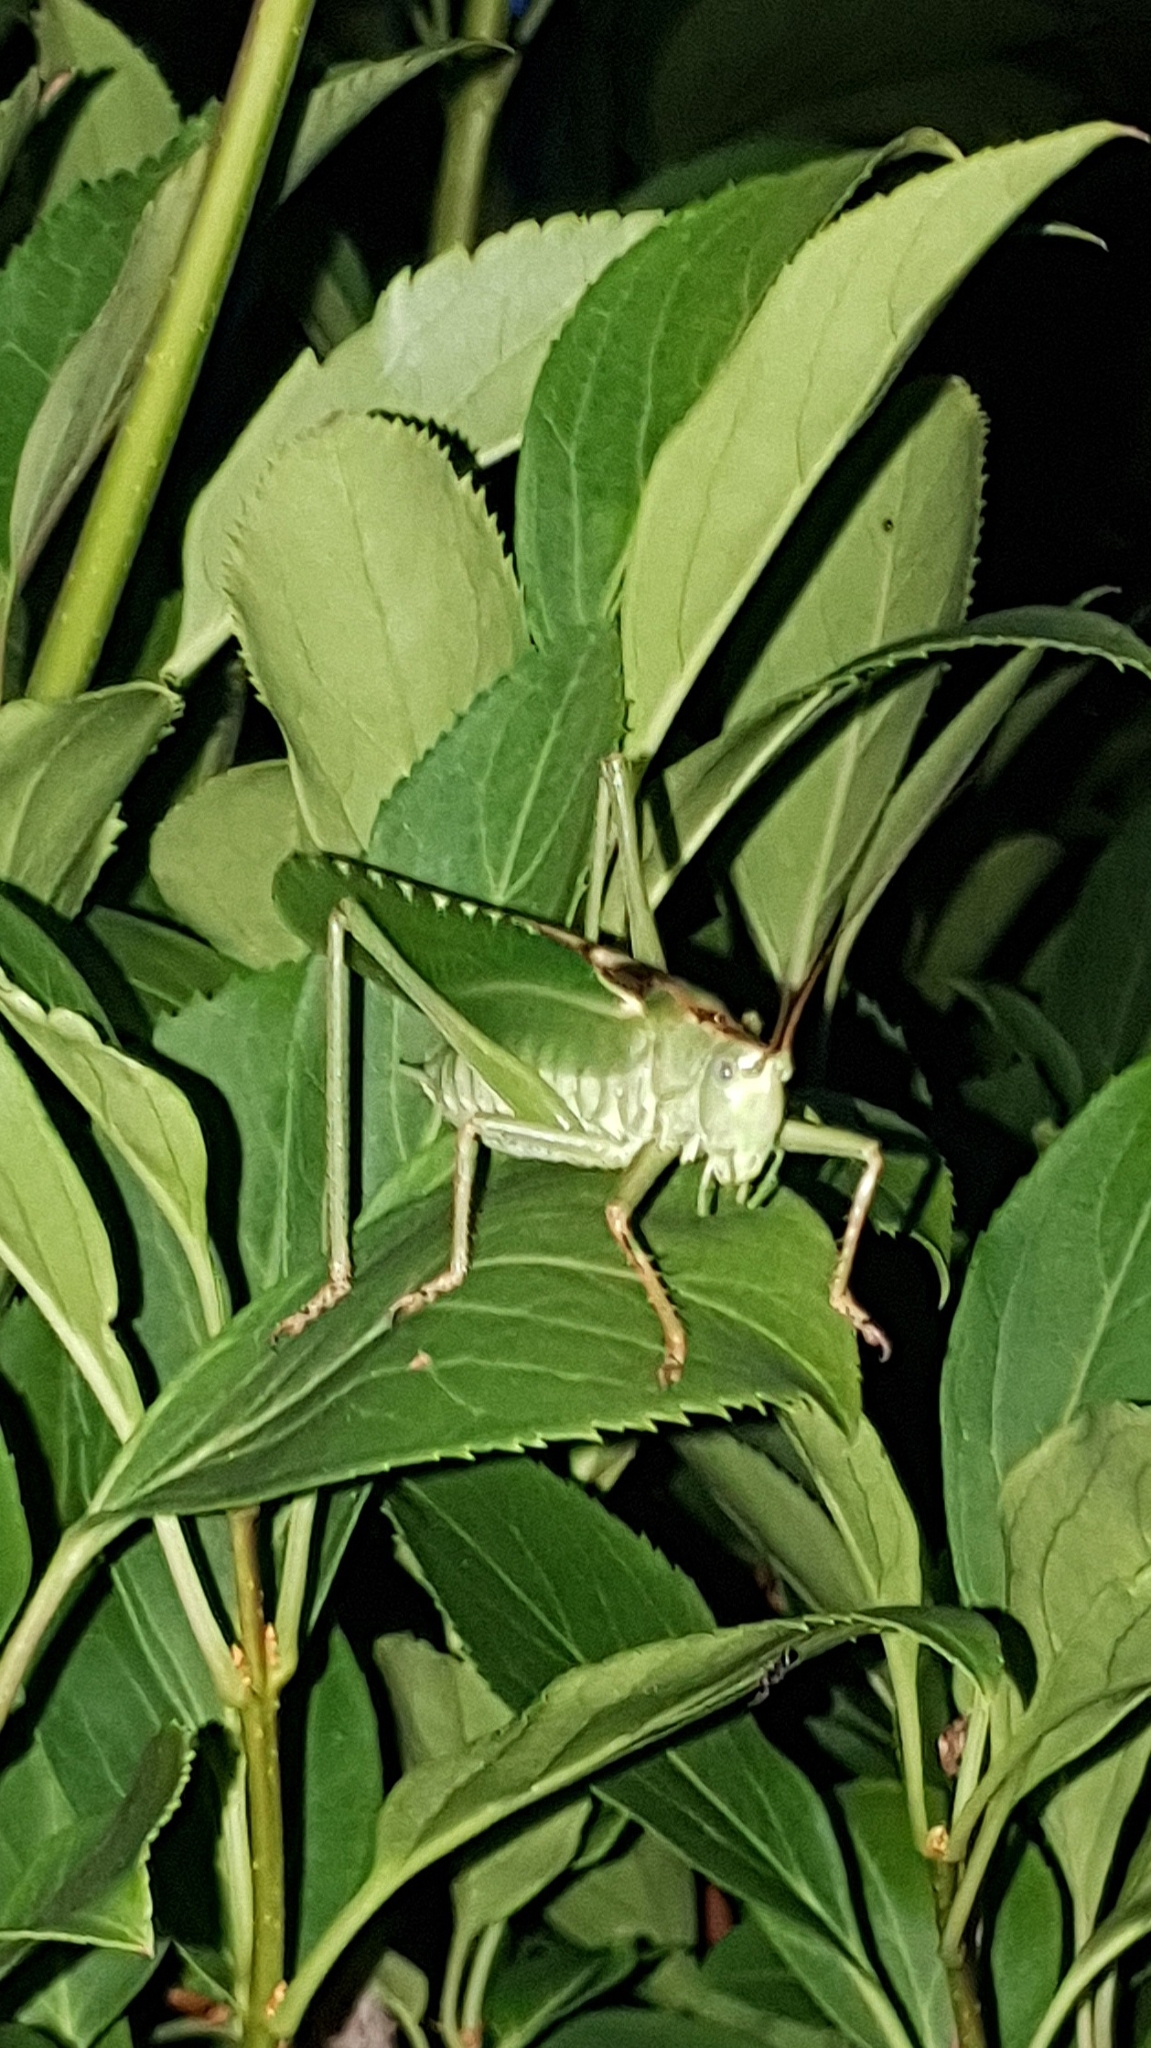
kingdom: Animalia
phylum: Arthropoda
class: Insecta
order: Orthoptera
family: Tettigoniidae
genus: Tettigonia
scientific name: Tettigonia viridissima
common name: Great green bush-cricket
